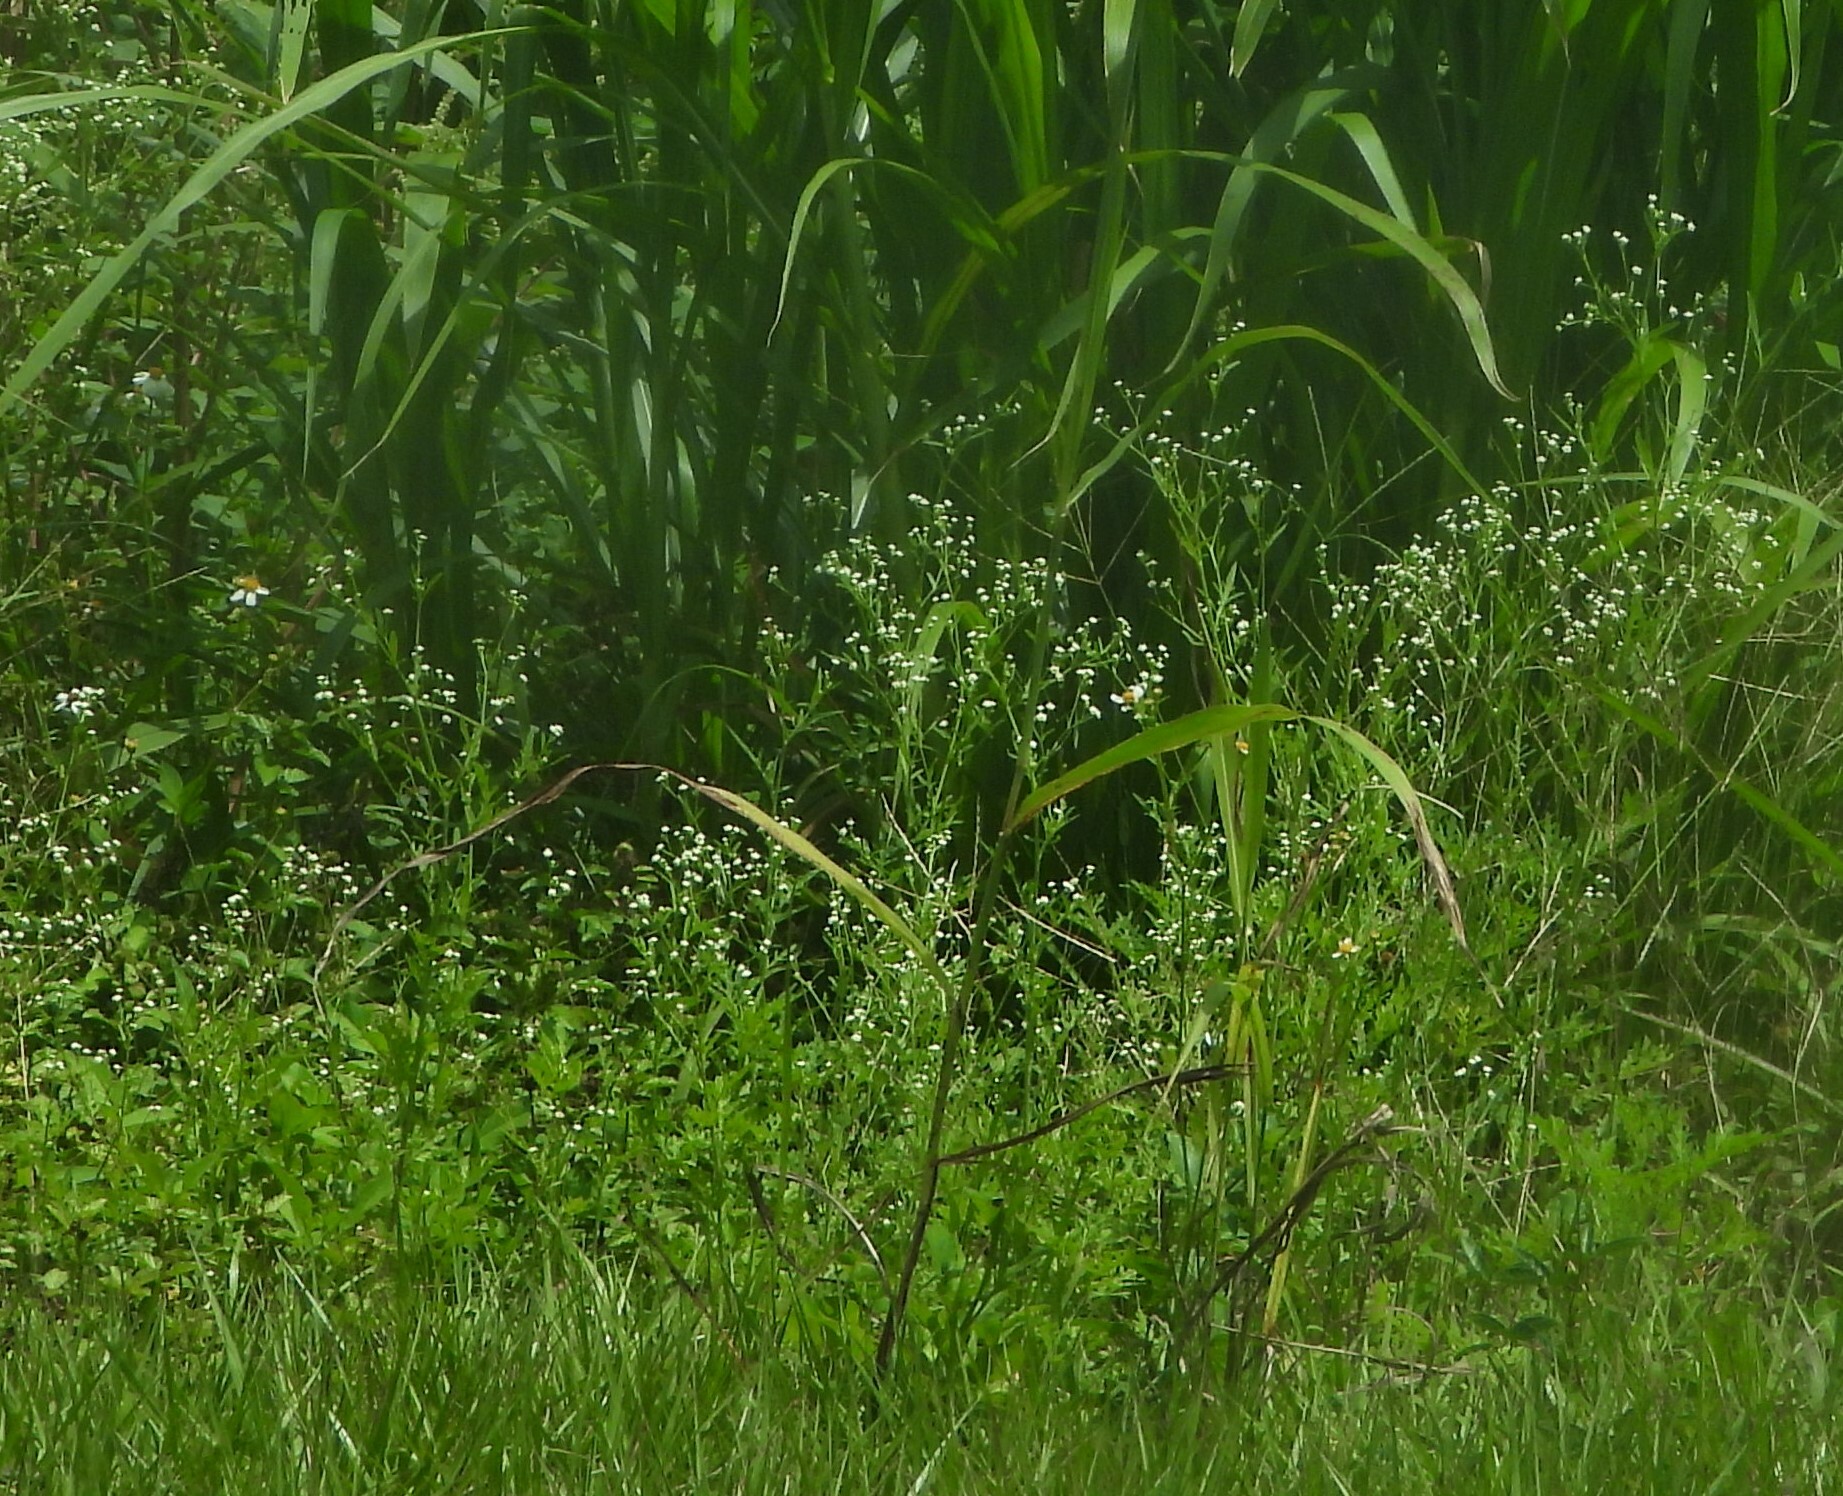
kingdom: Plantae
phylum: Tracheophyta
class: Magnoliopsida
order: Asterales
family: Asteraceae
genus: Parthenium
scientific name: Parthenium hysterophorus
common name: Santa maria feverfew
